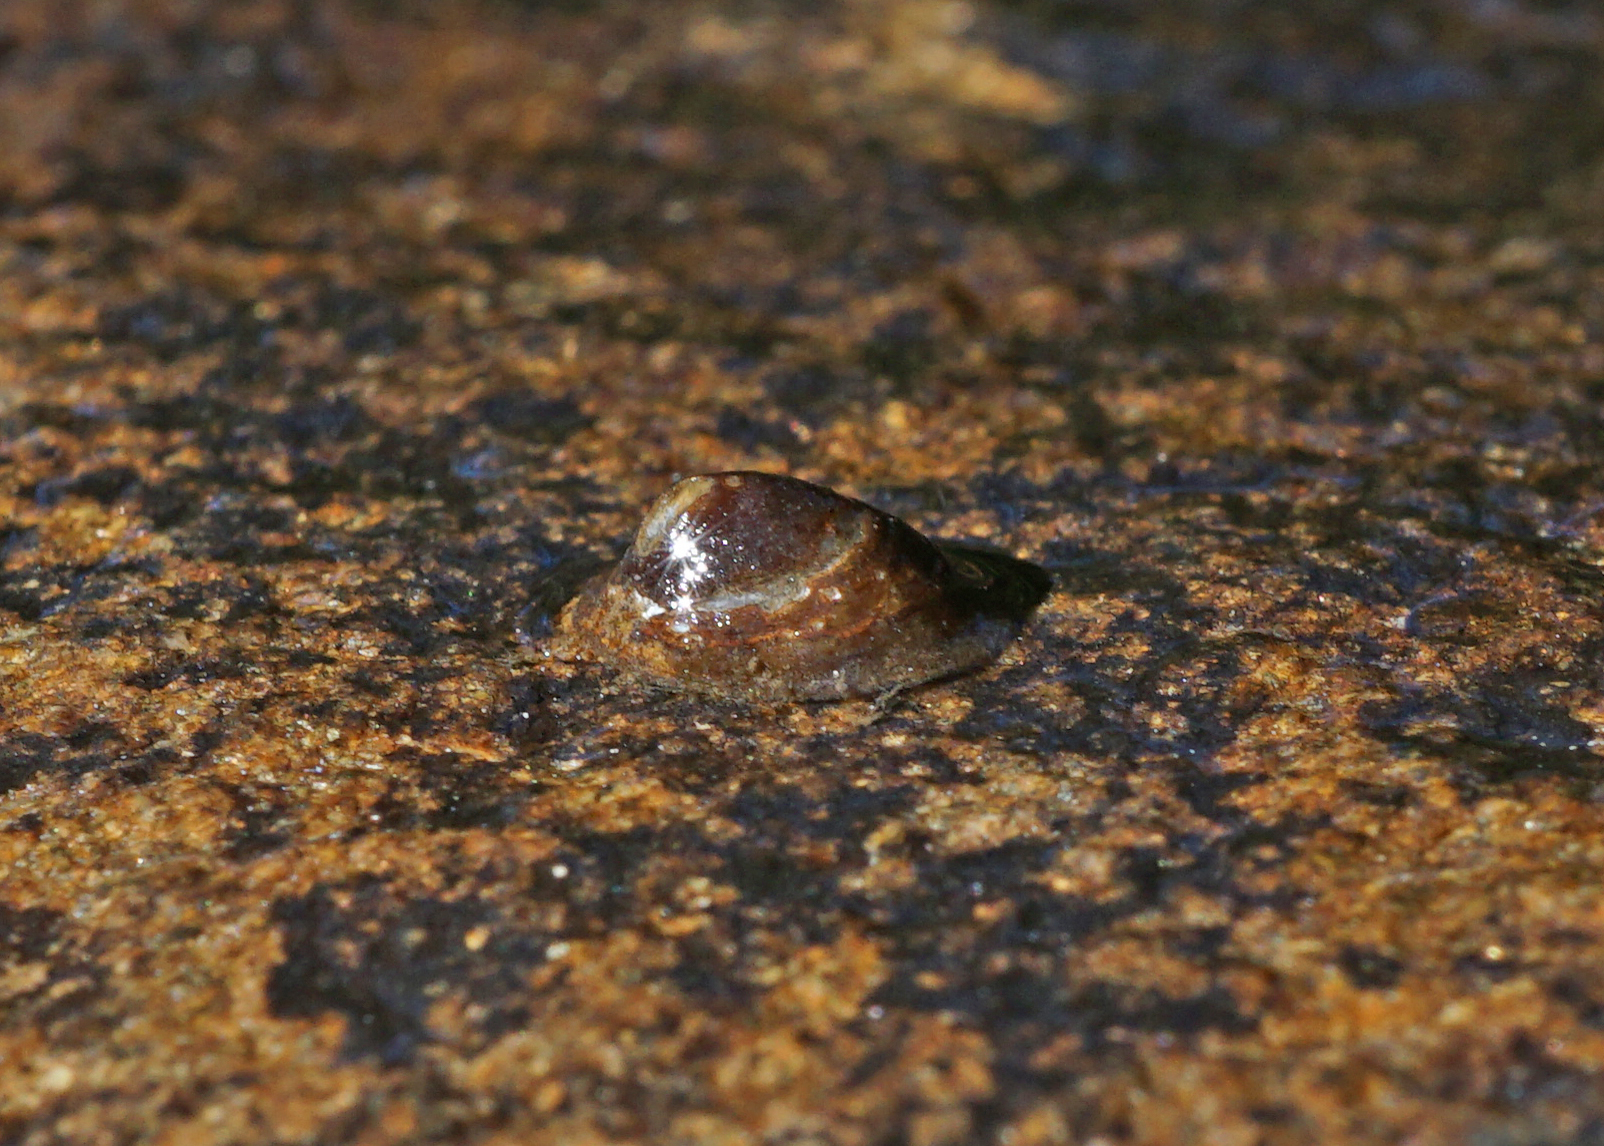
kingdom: Animalia
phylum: Mollusca
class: Gastropoda
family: Planorbidae
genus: Ancylus
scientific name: Ancylus fluviatilis
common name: River limpet
